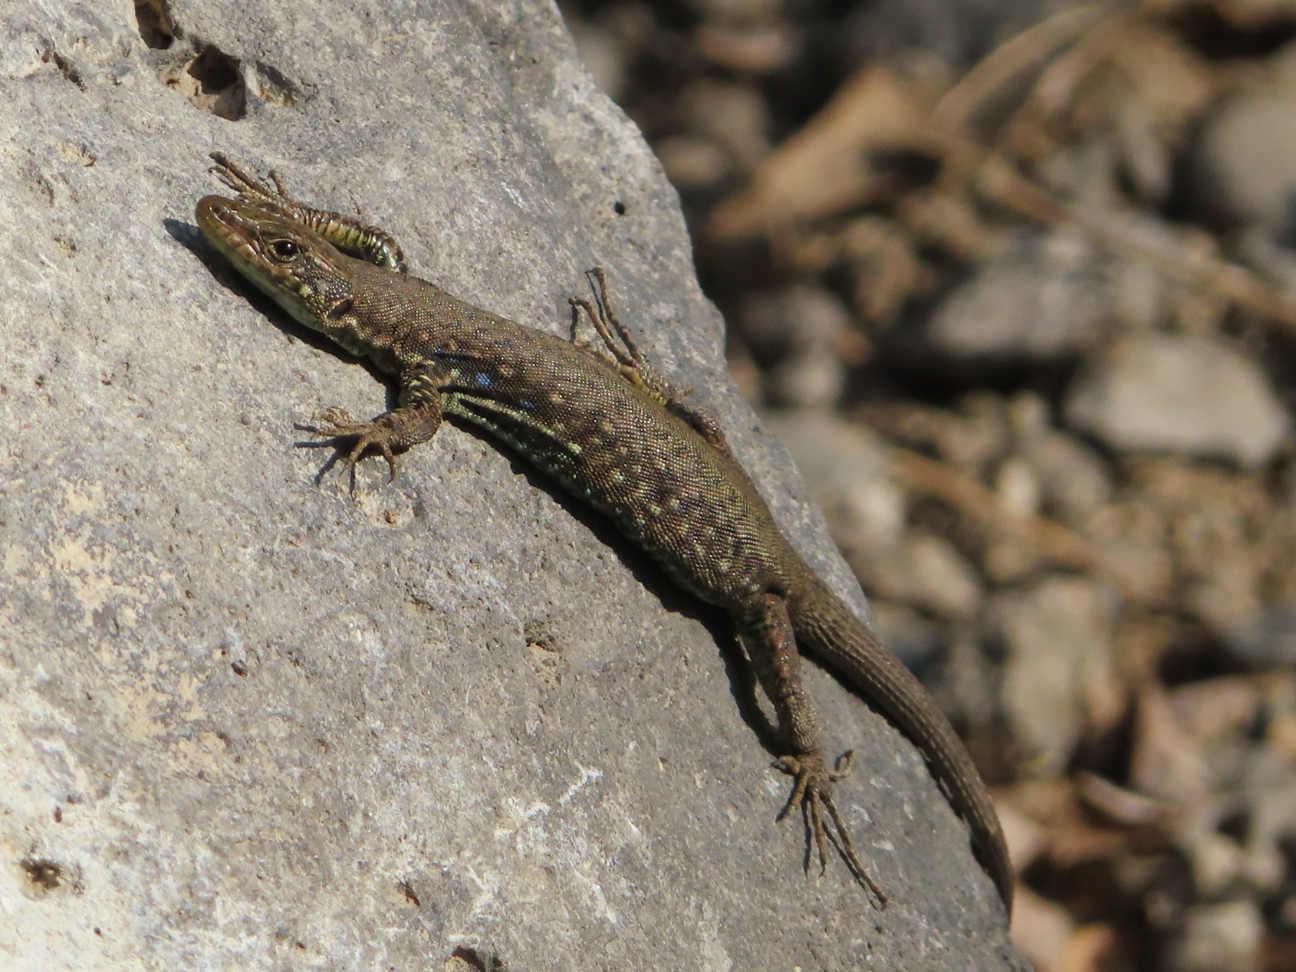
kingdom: Animalia
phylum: Chordata
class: Squamata
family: Lacertidae
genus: Darevskia
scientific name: Darevskia
